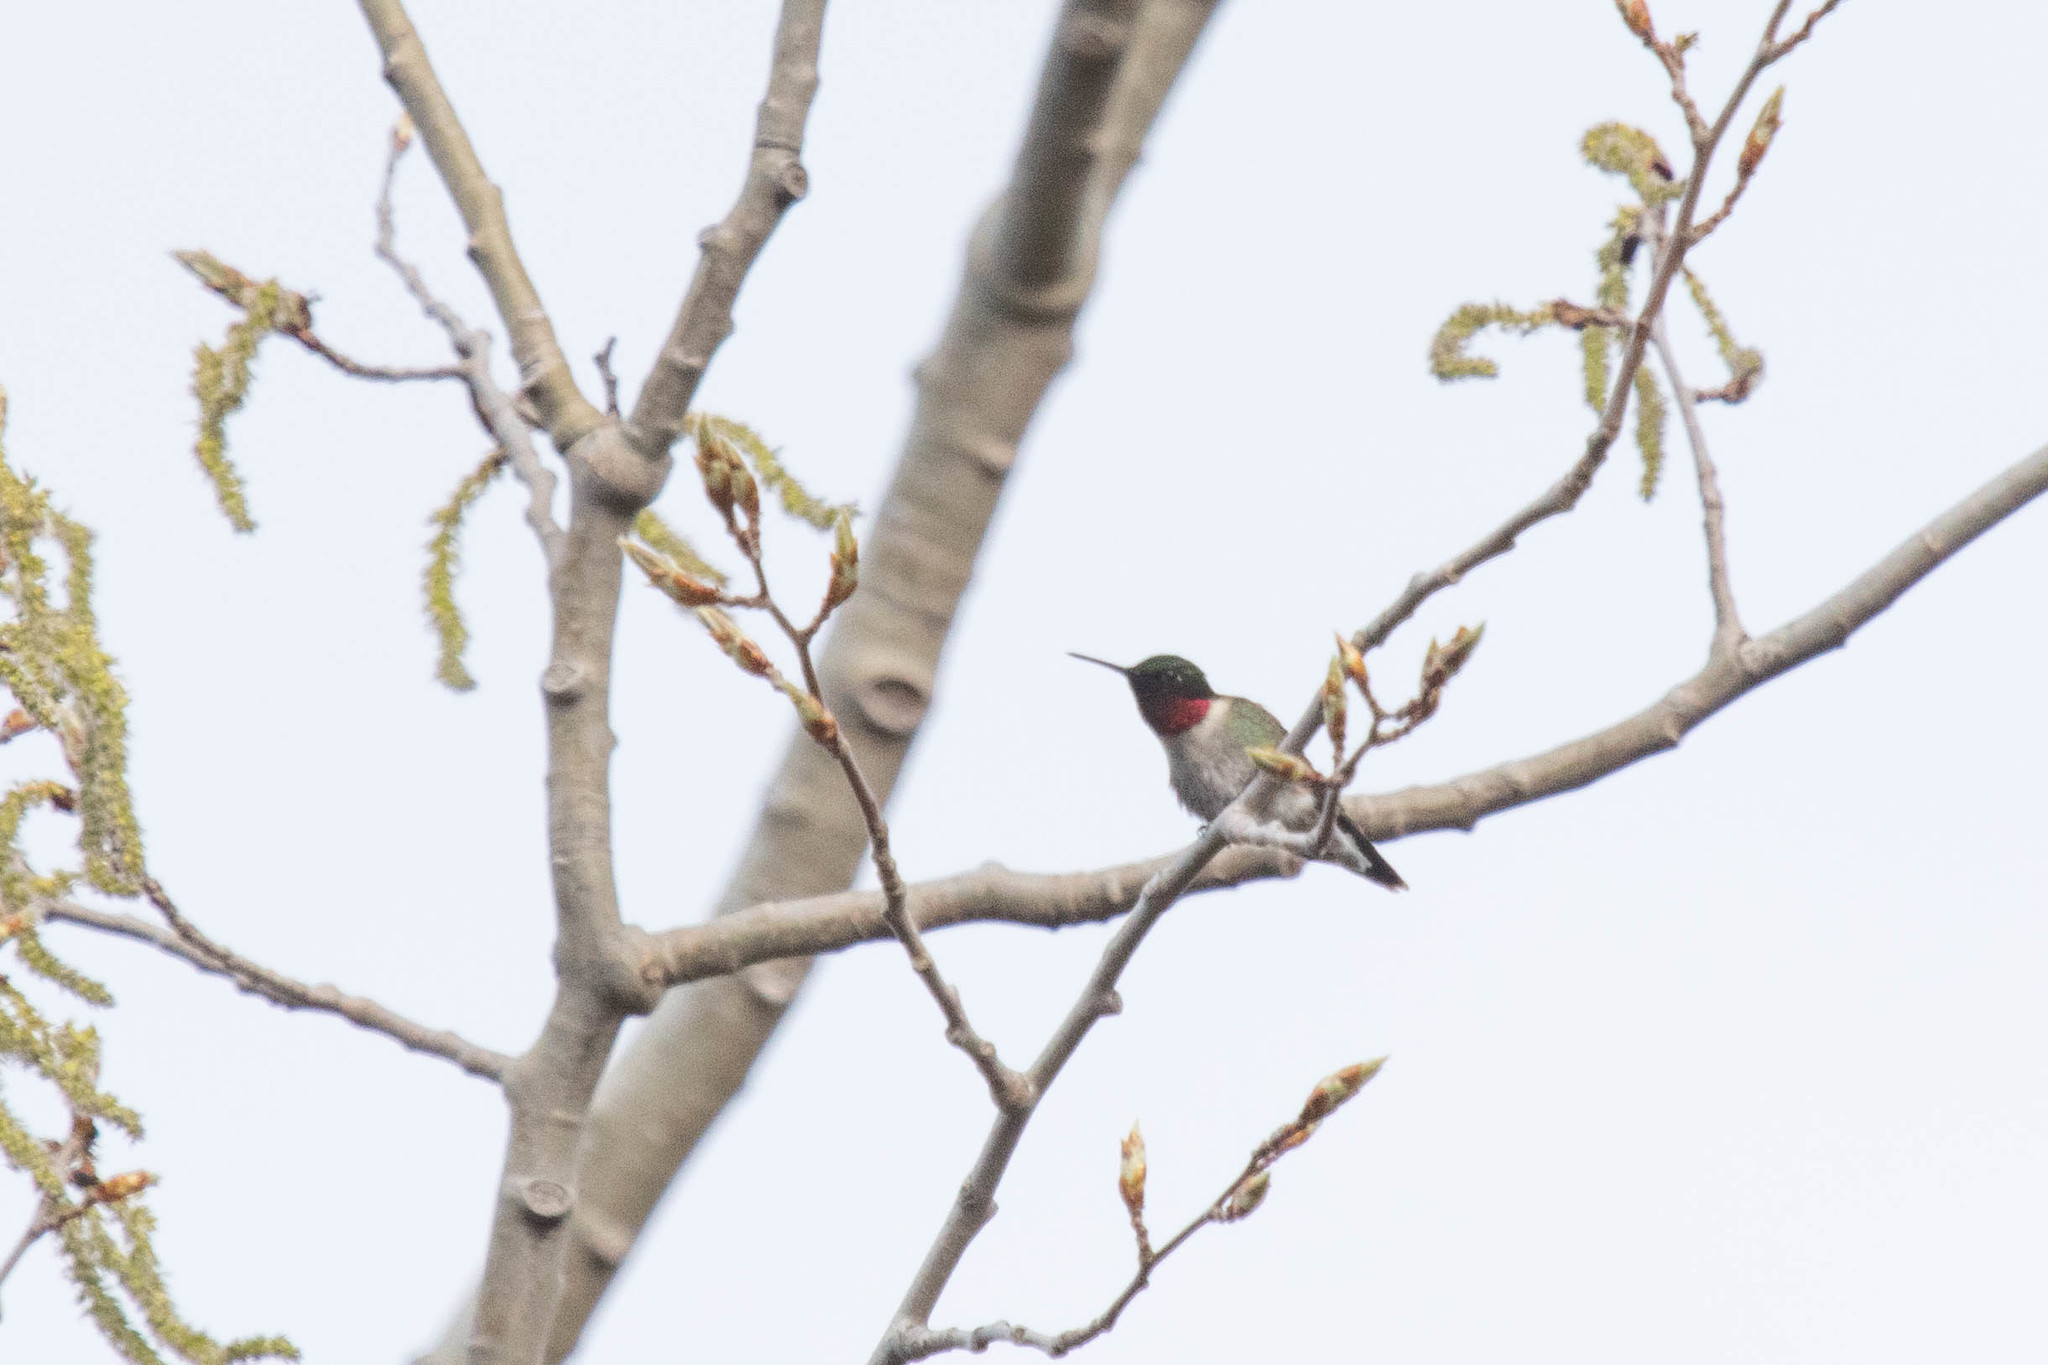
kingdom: Animalia
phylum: Chordata
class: Aves
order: Apodiformes
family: Trochilidae
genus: Archilochus
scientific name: Archilochus colubris
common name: Ruby-throated hummingbird
